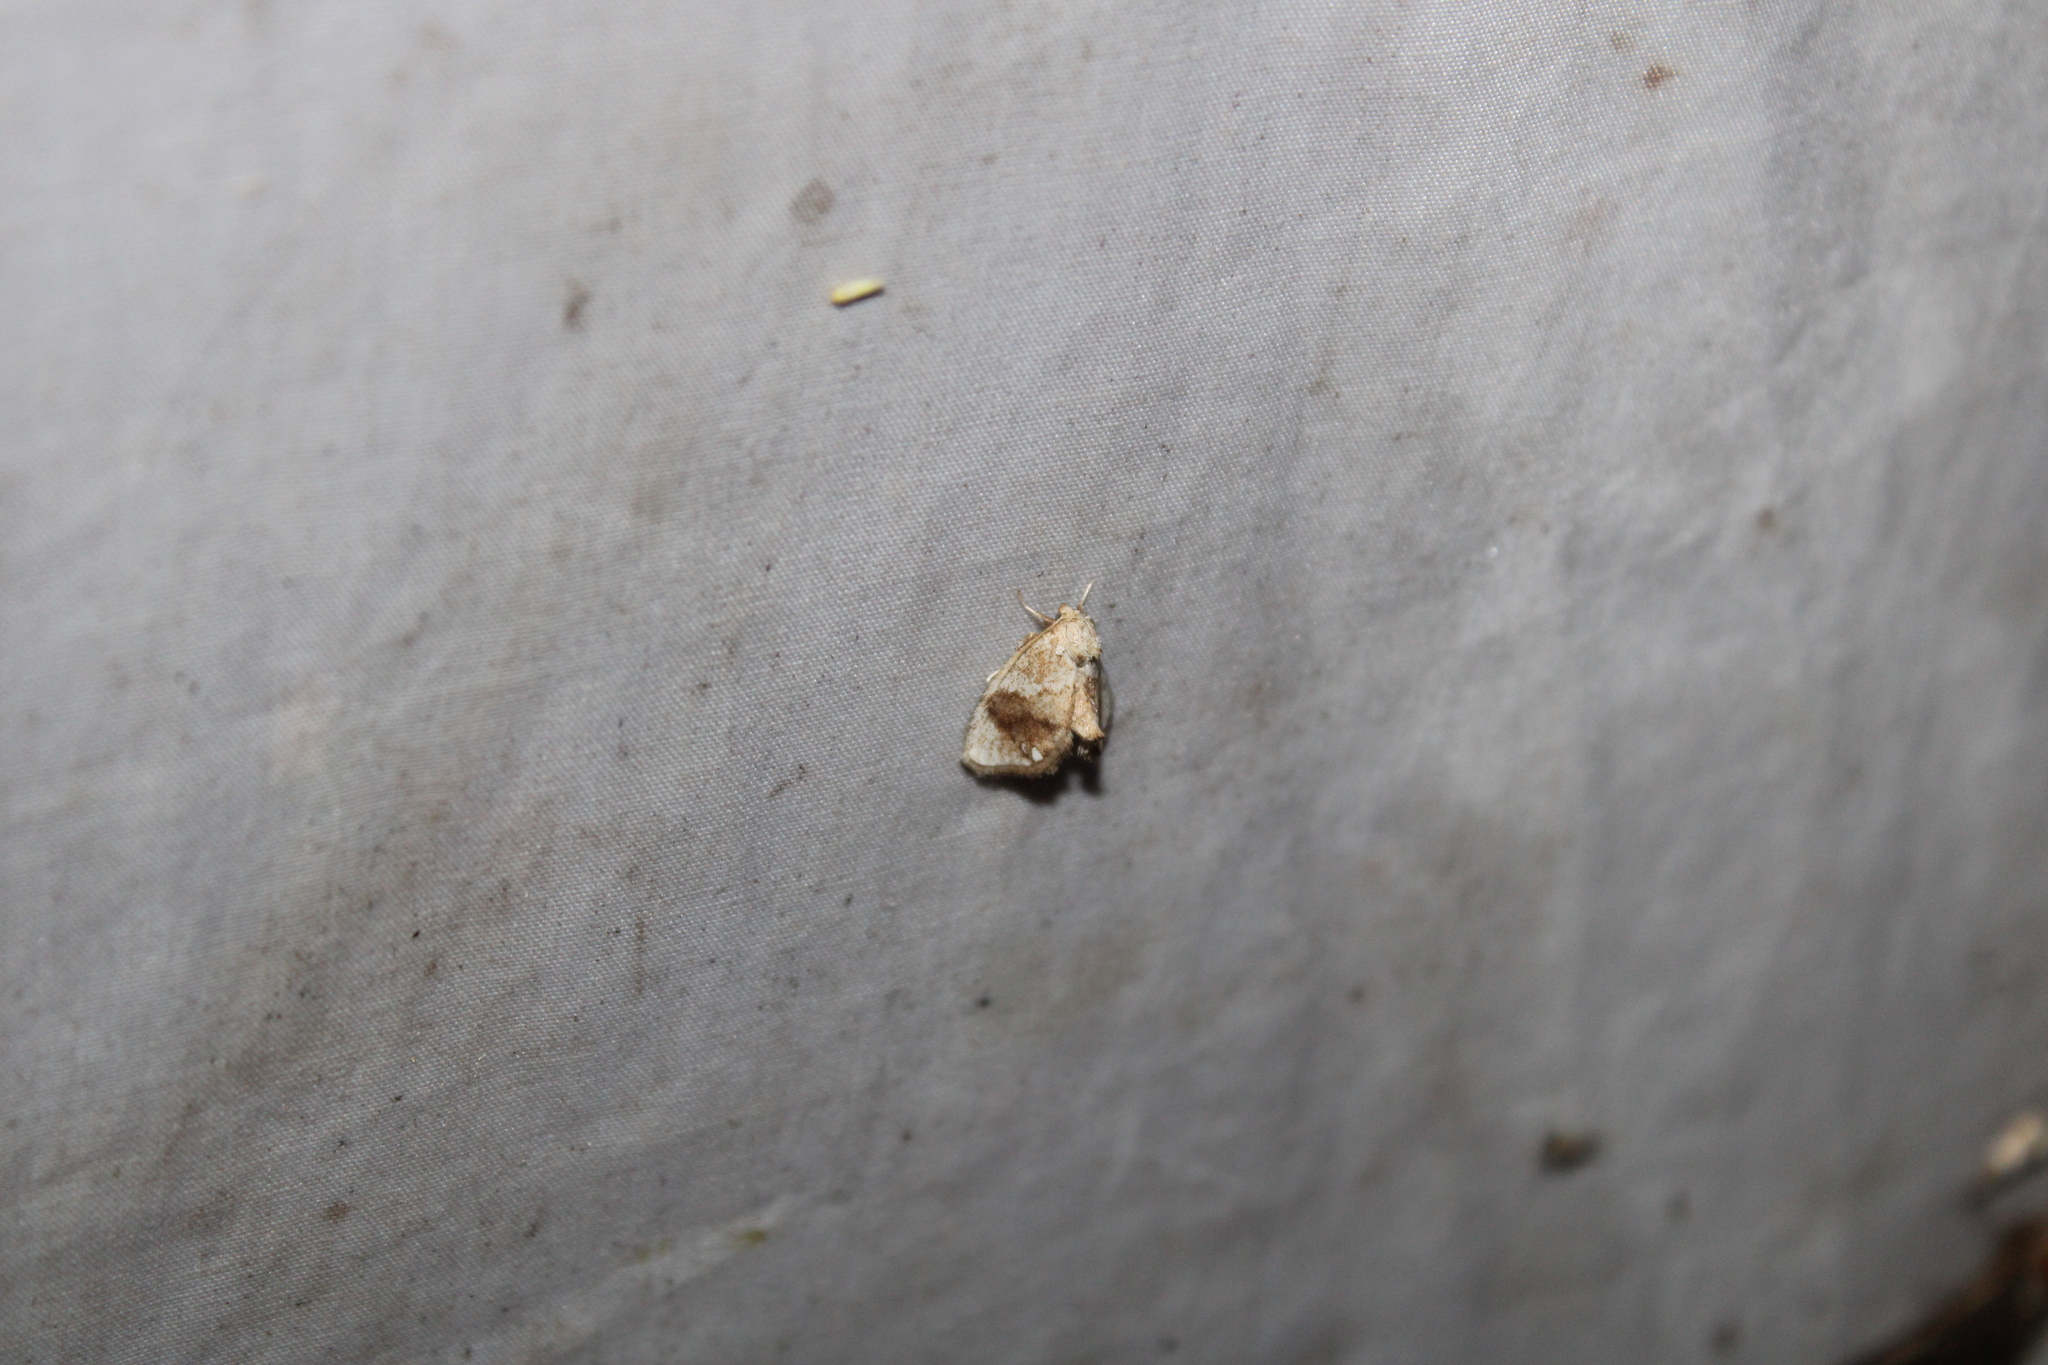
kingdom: Animalia
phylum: Arthropoda
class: Insecta
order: Lepidoptera
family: Limacodidae
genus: Packardia
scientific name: Packardia geminata
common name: Jeweled tailed slug moth
